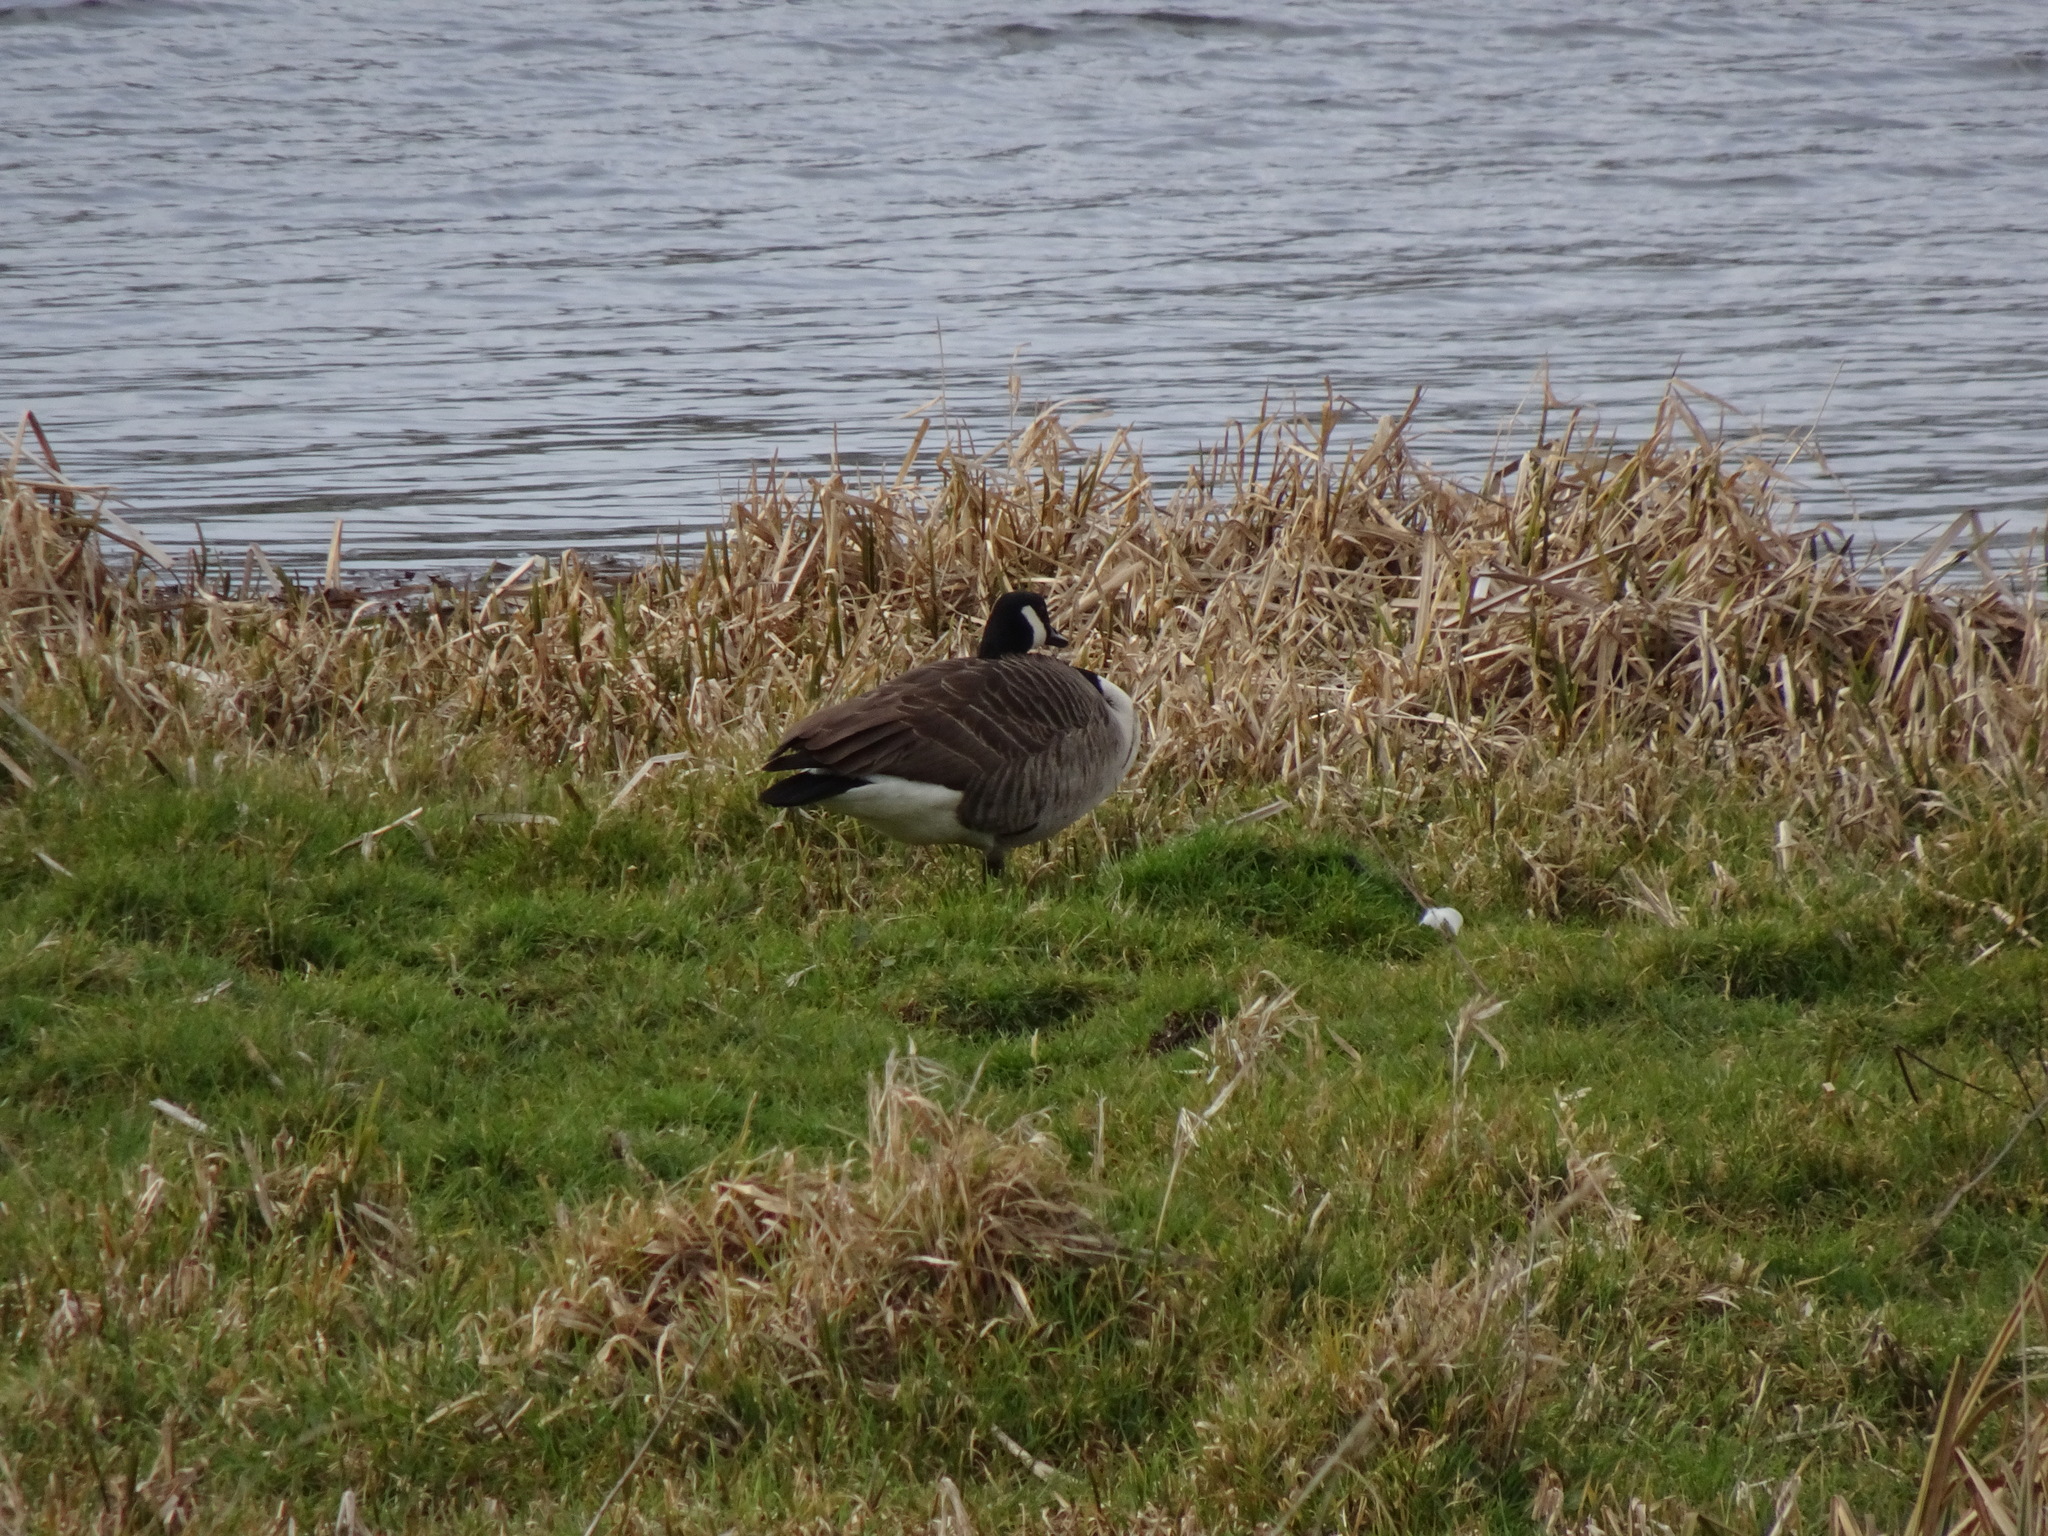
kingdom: Animalia
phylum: Chordata
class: Aves
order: Anseriformes
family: Anatidae
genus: Branta
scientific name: Branta canadensis
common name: Canada goose
